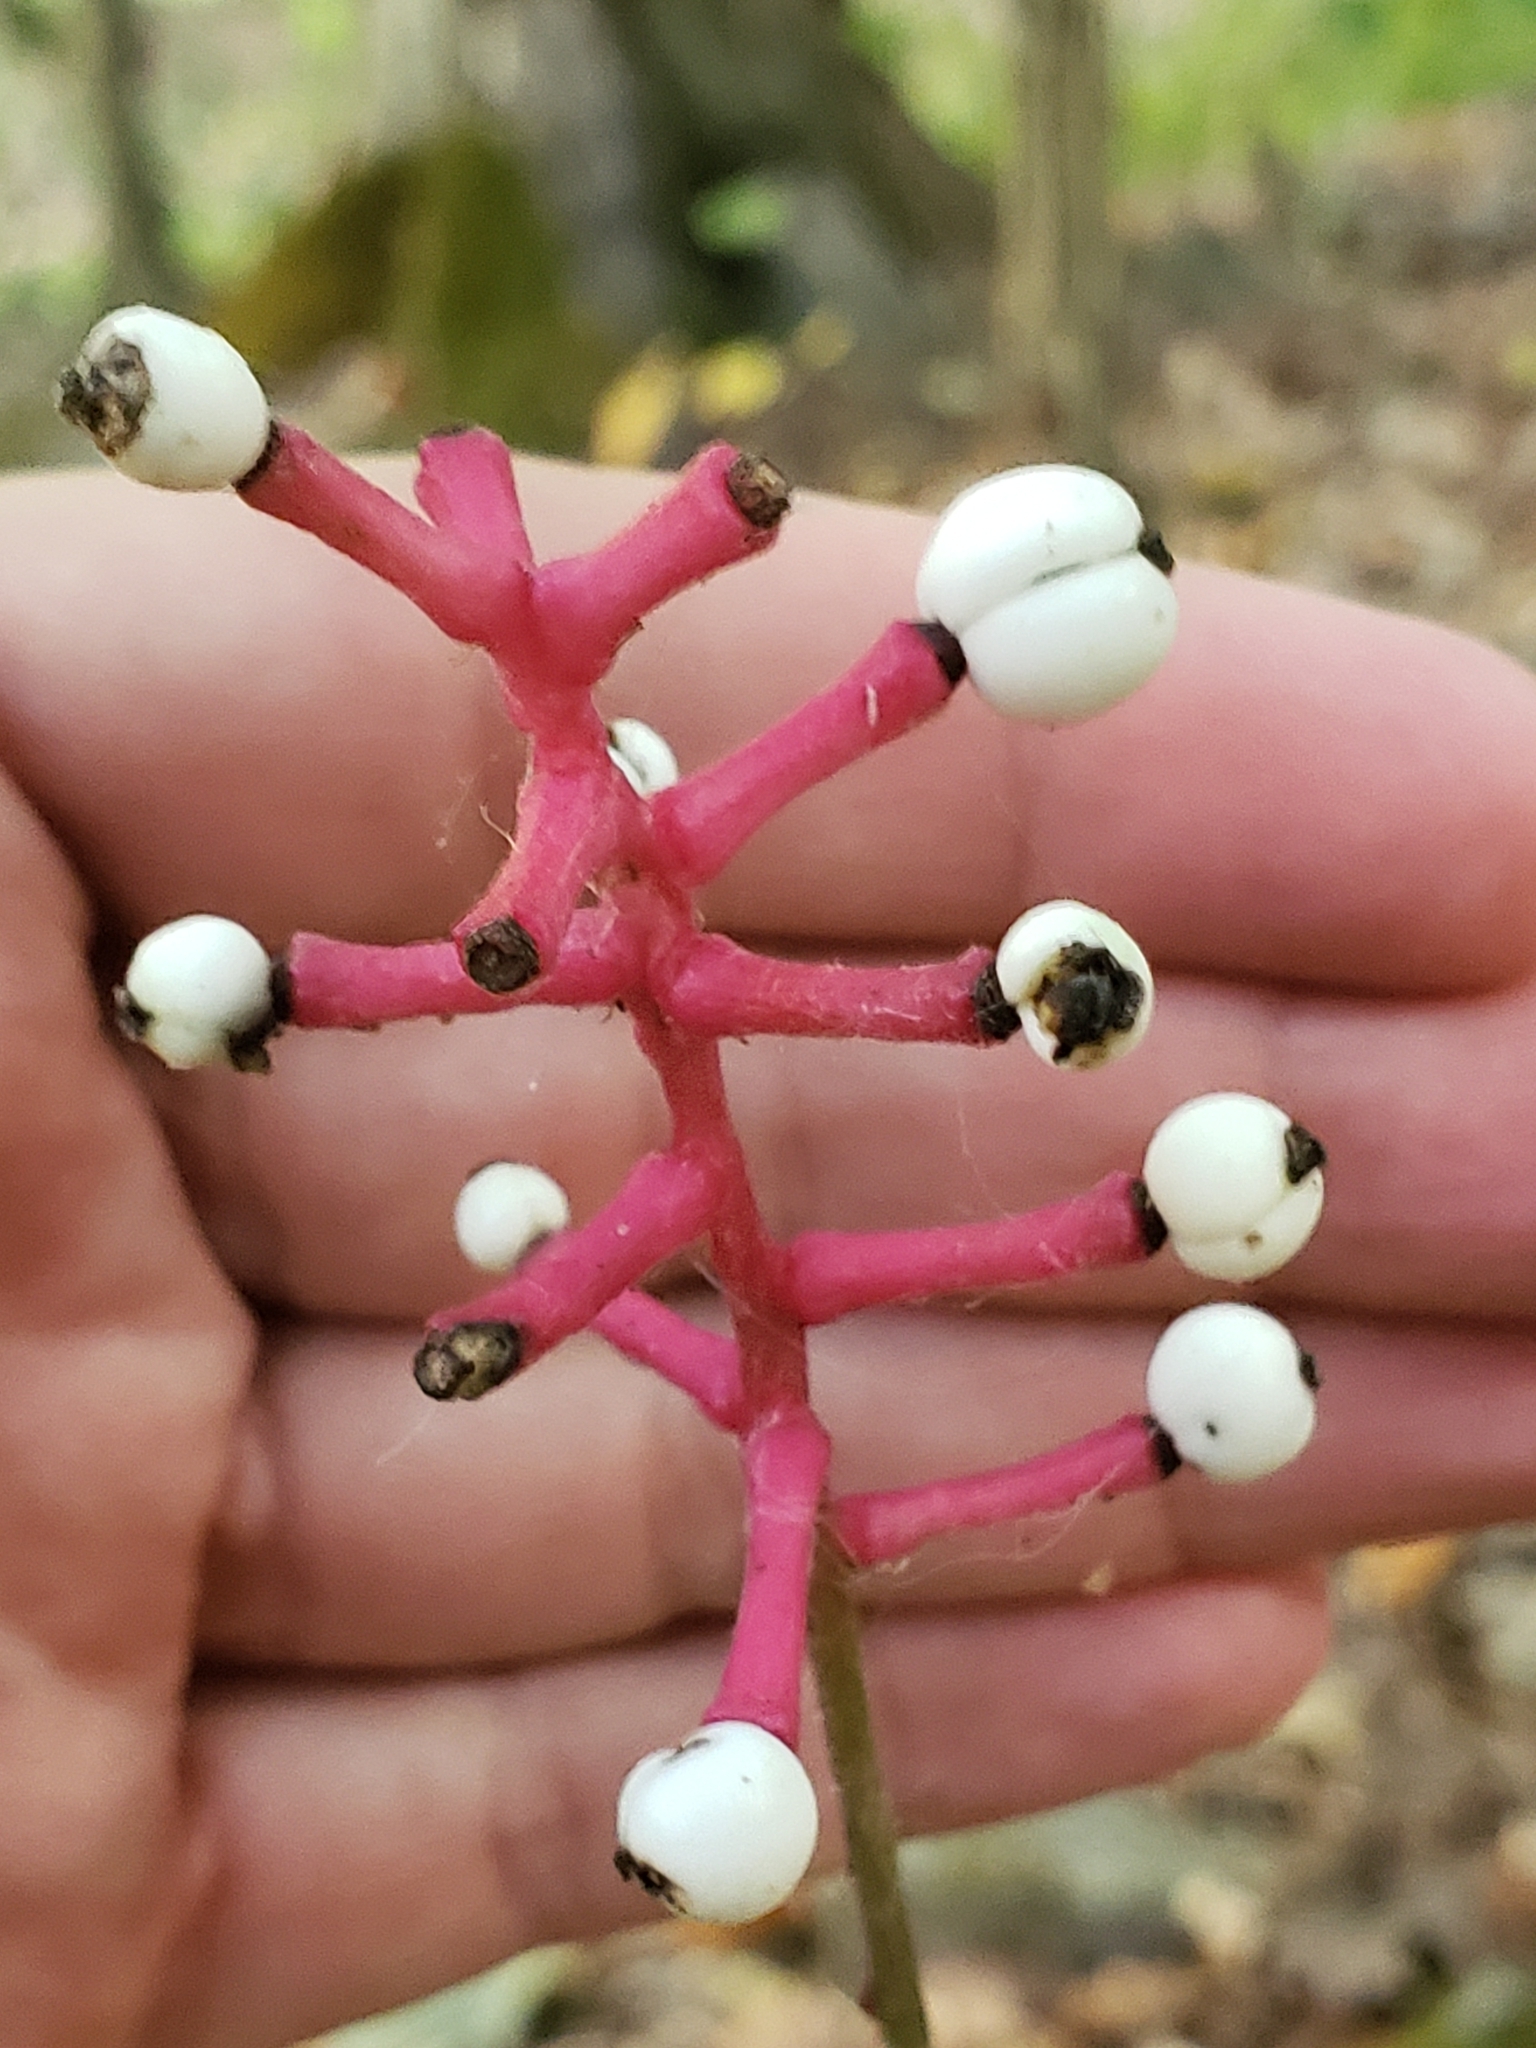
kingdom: Plantae
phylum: Tracheophyta
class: Magnoliopsida
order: Ranunculales
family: Ranunculaceae
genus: Actaea
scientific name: Actaea pachypoda
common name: Doll's-eyes
